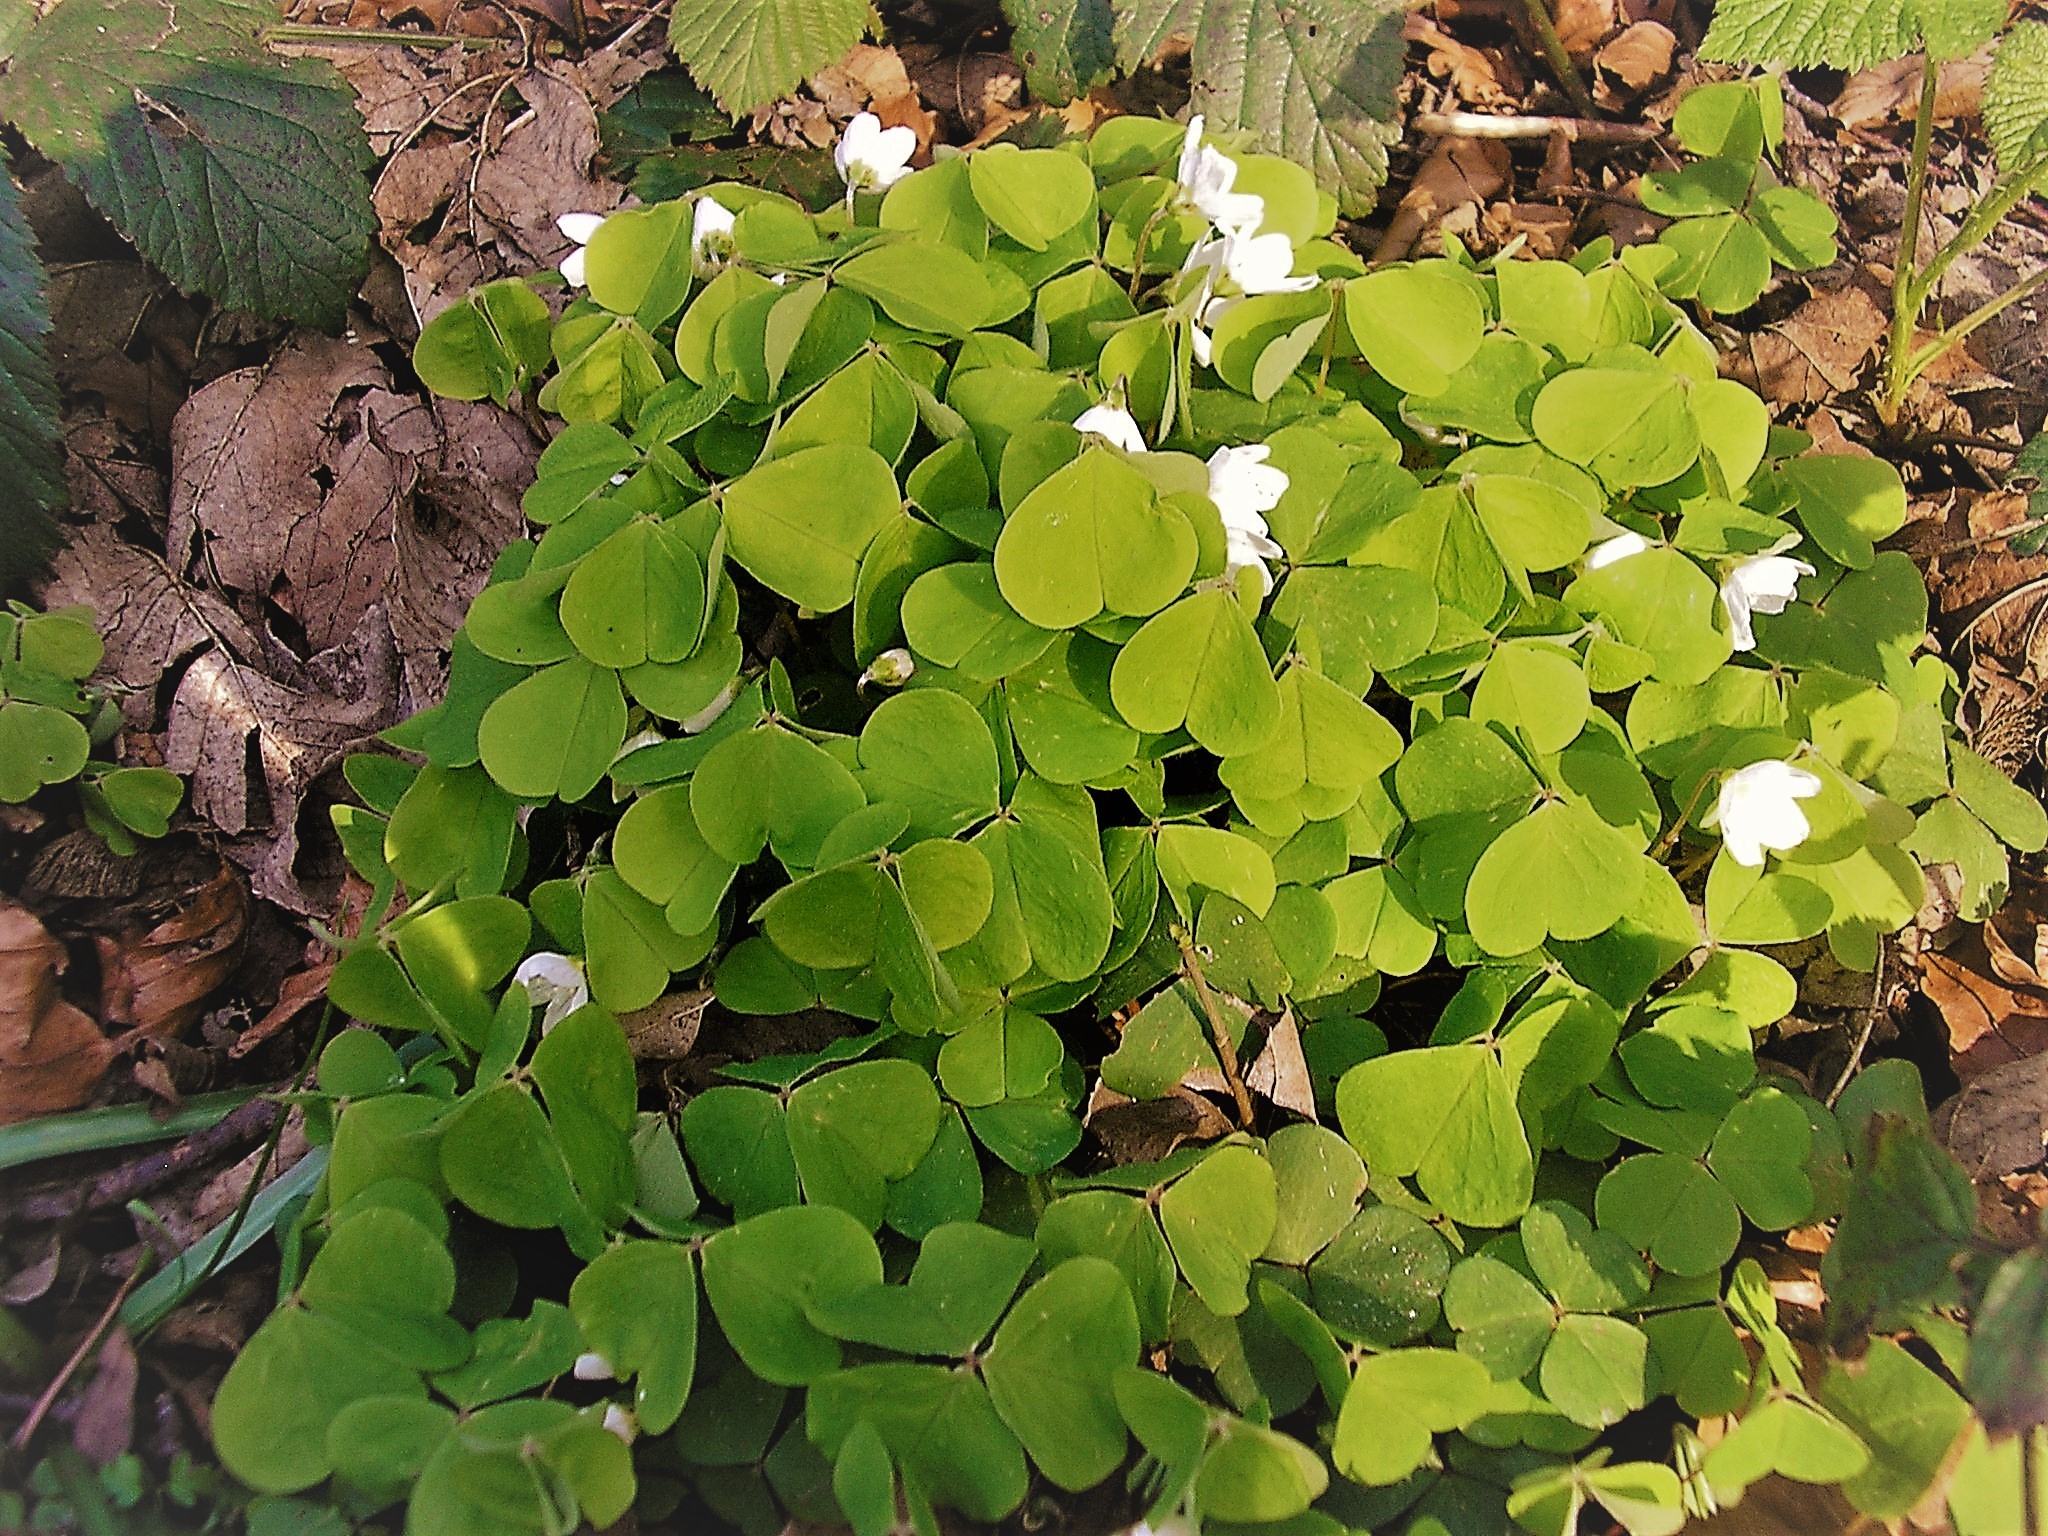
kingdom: Plantae
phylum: Tracheophyta
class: Magnoliopsida
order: Oxalidales
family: Oxalidaceae
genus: Oxalis
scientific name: Oxalis acetosella
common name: Wood-sorrel
